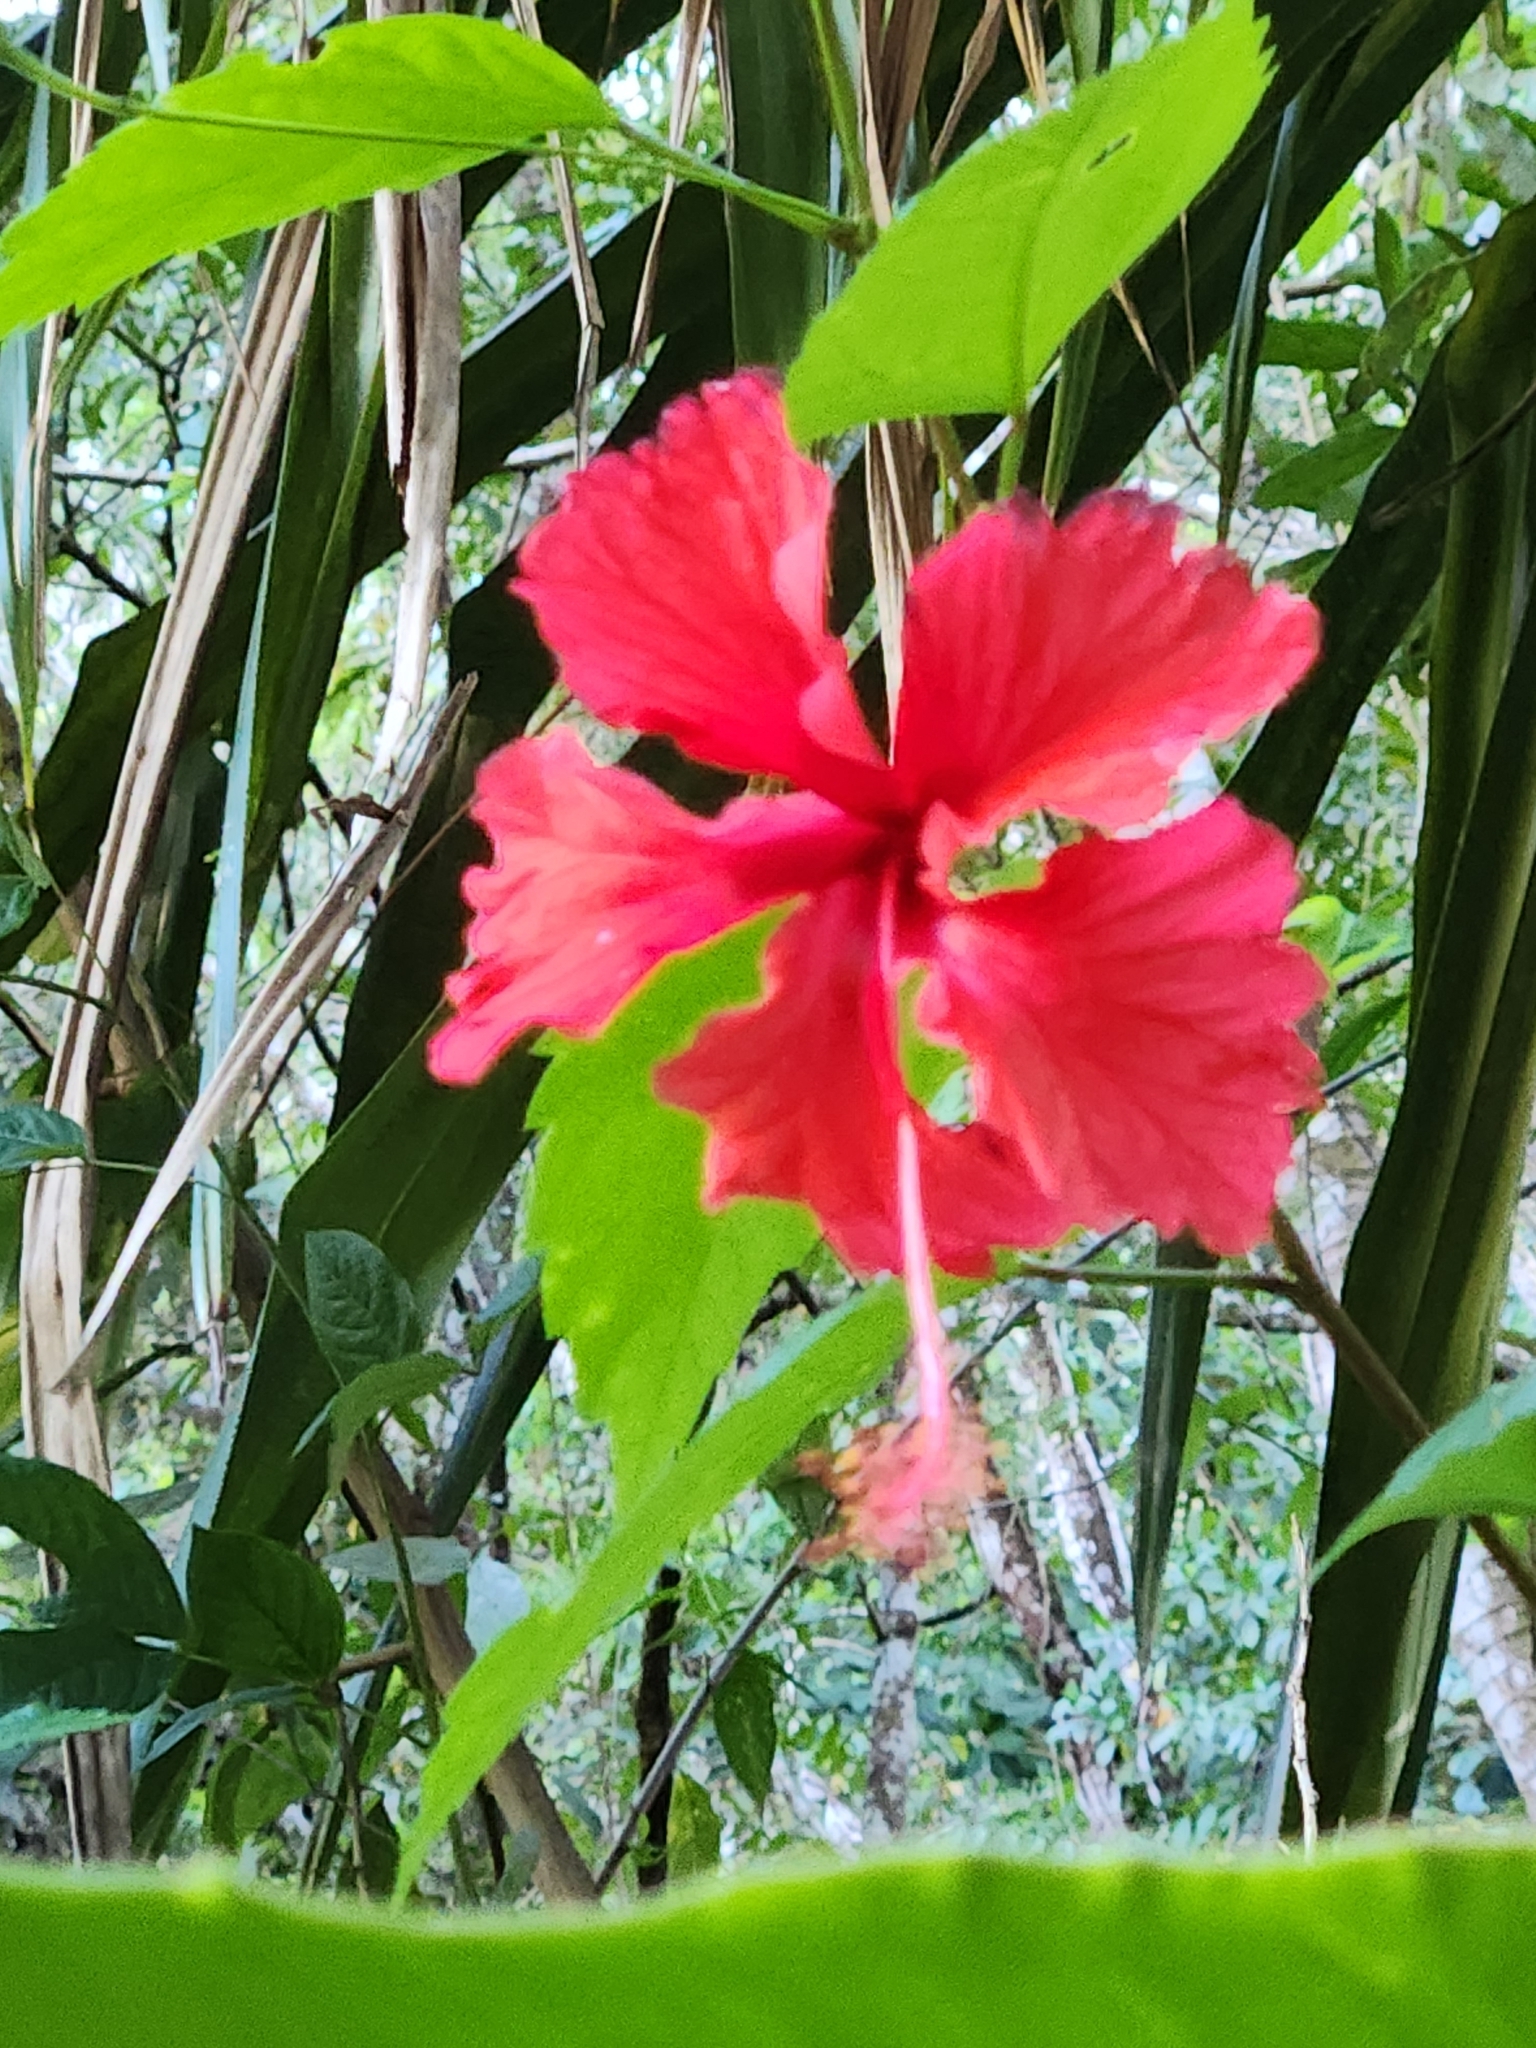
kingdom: Plantae
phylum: Tracheophyta
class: Magnoliopsida
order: Malvales
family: Malvaceae
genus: Hibiscus
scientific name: Hibiscus archeri
